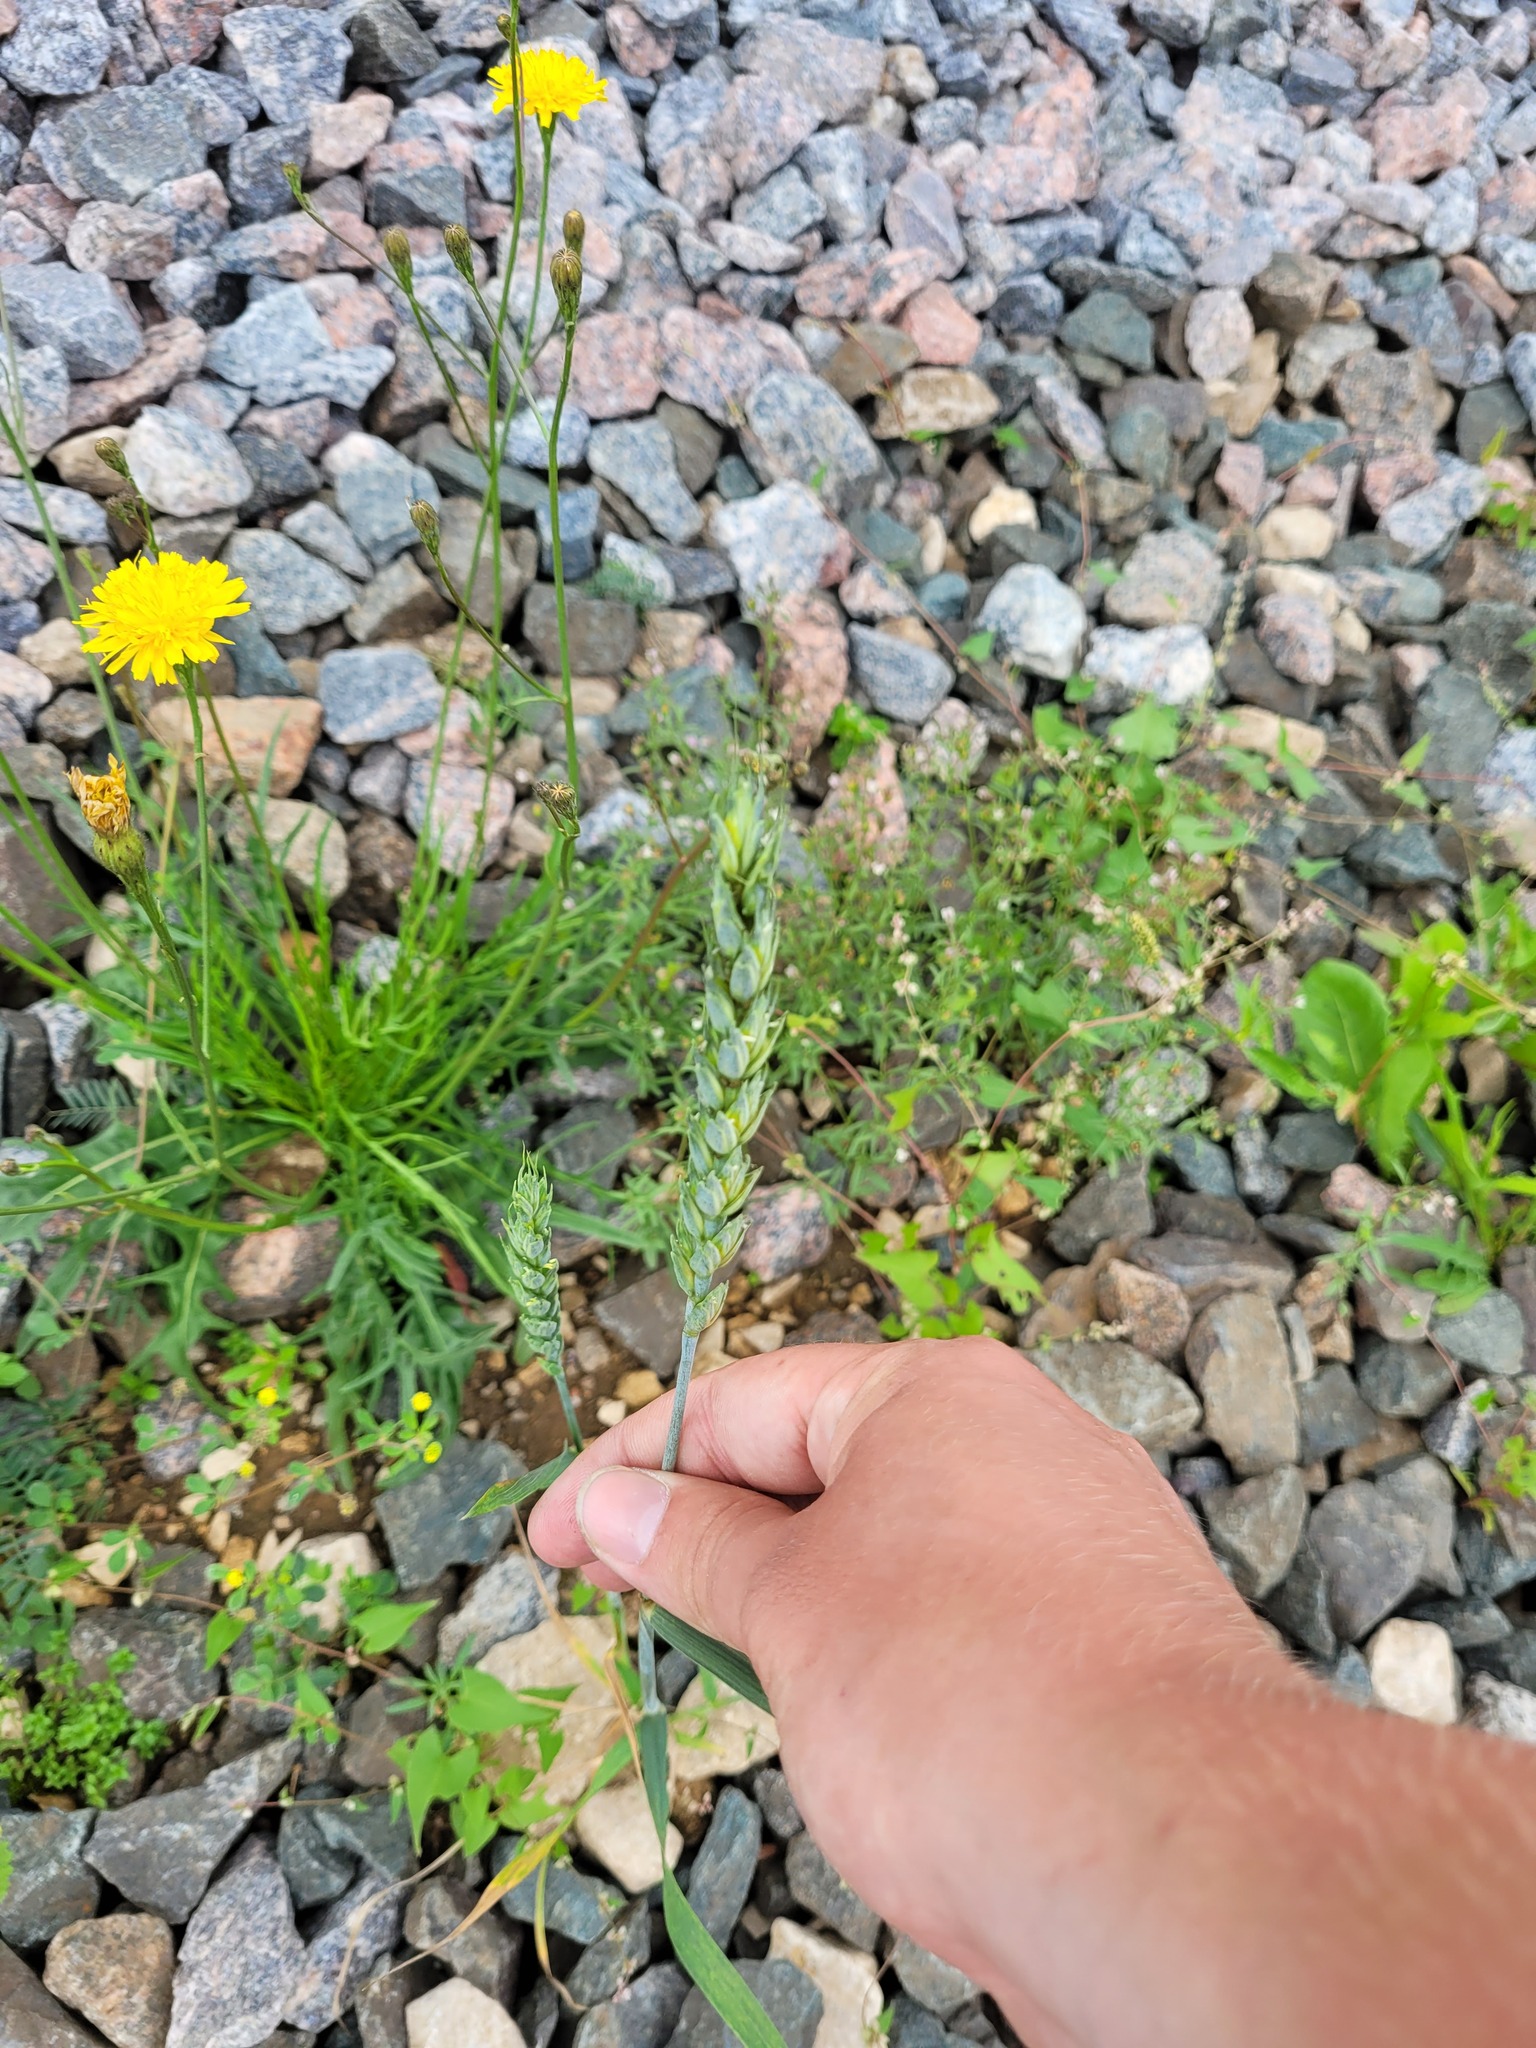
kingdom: Plantae
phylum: Tracheophyta
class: Liliopsida
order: Poales
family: Poaceae
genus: Triticum
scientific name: Triticum aestivum
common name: Common wheat
